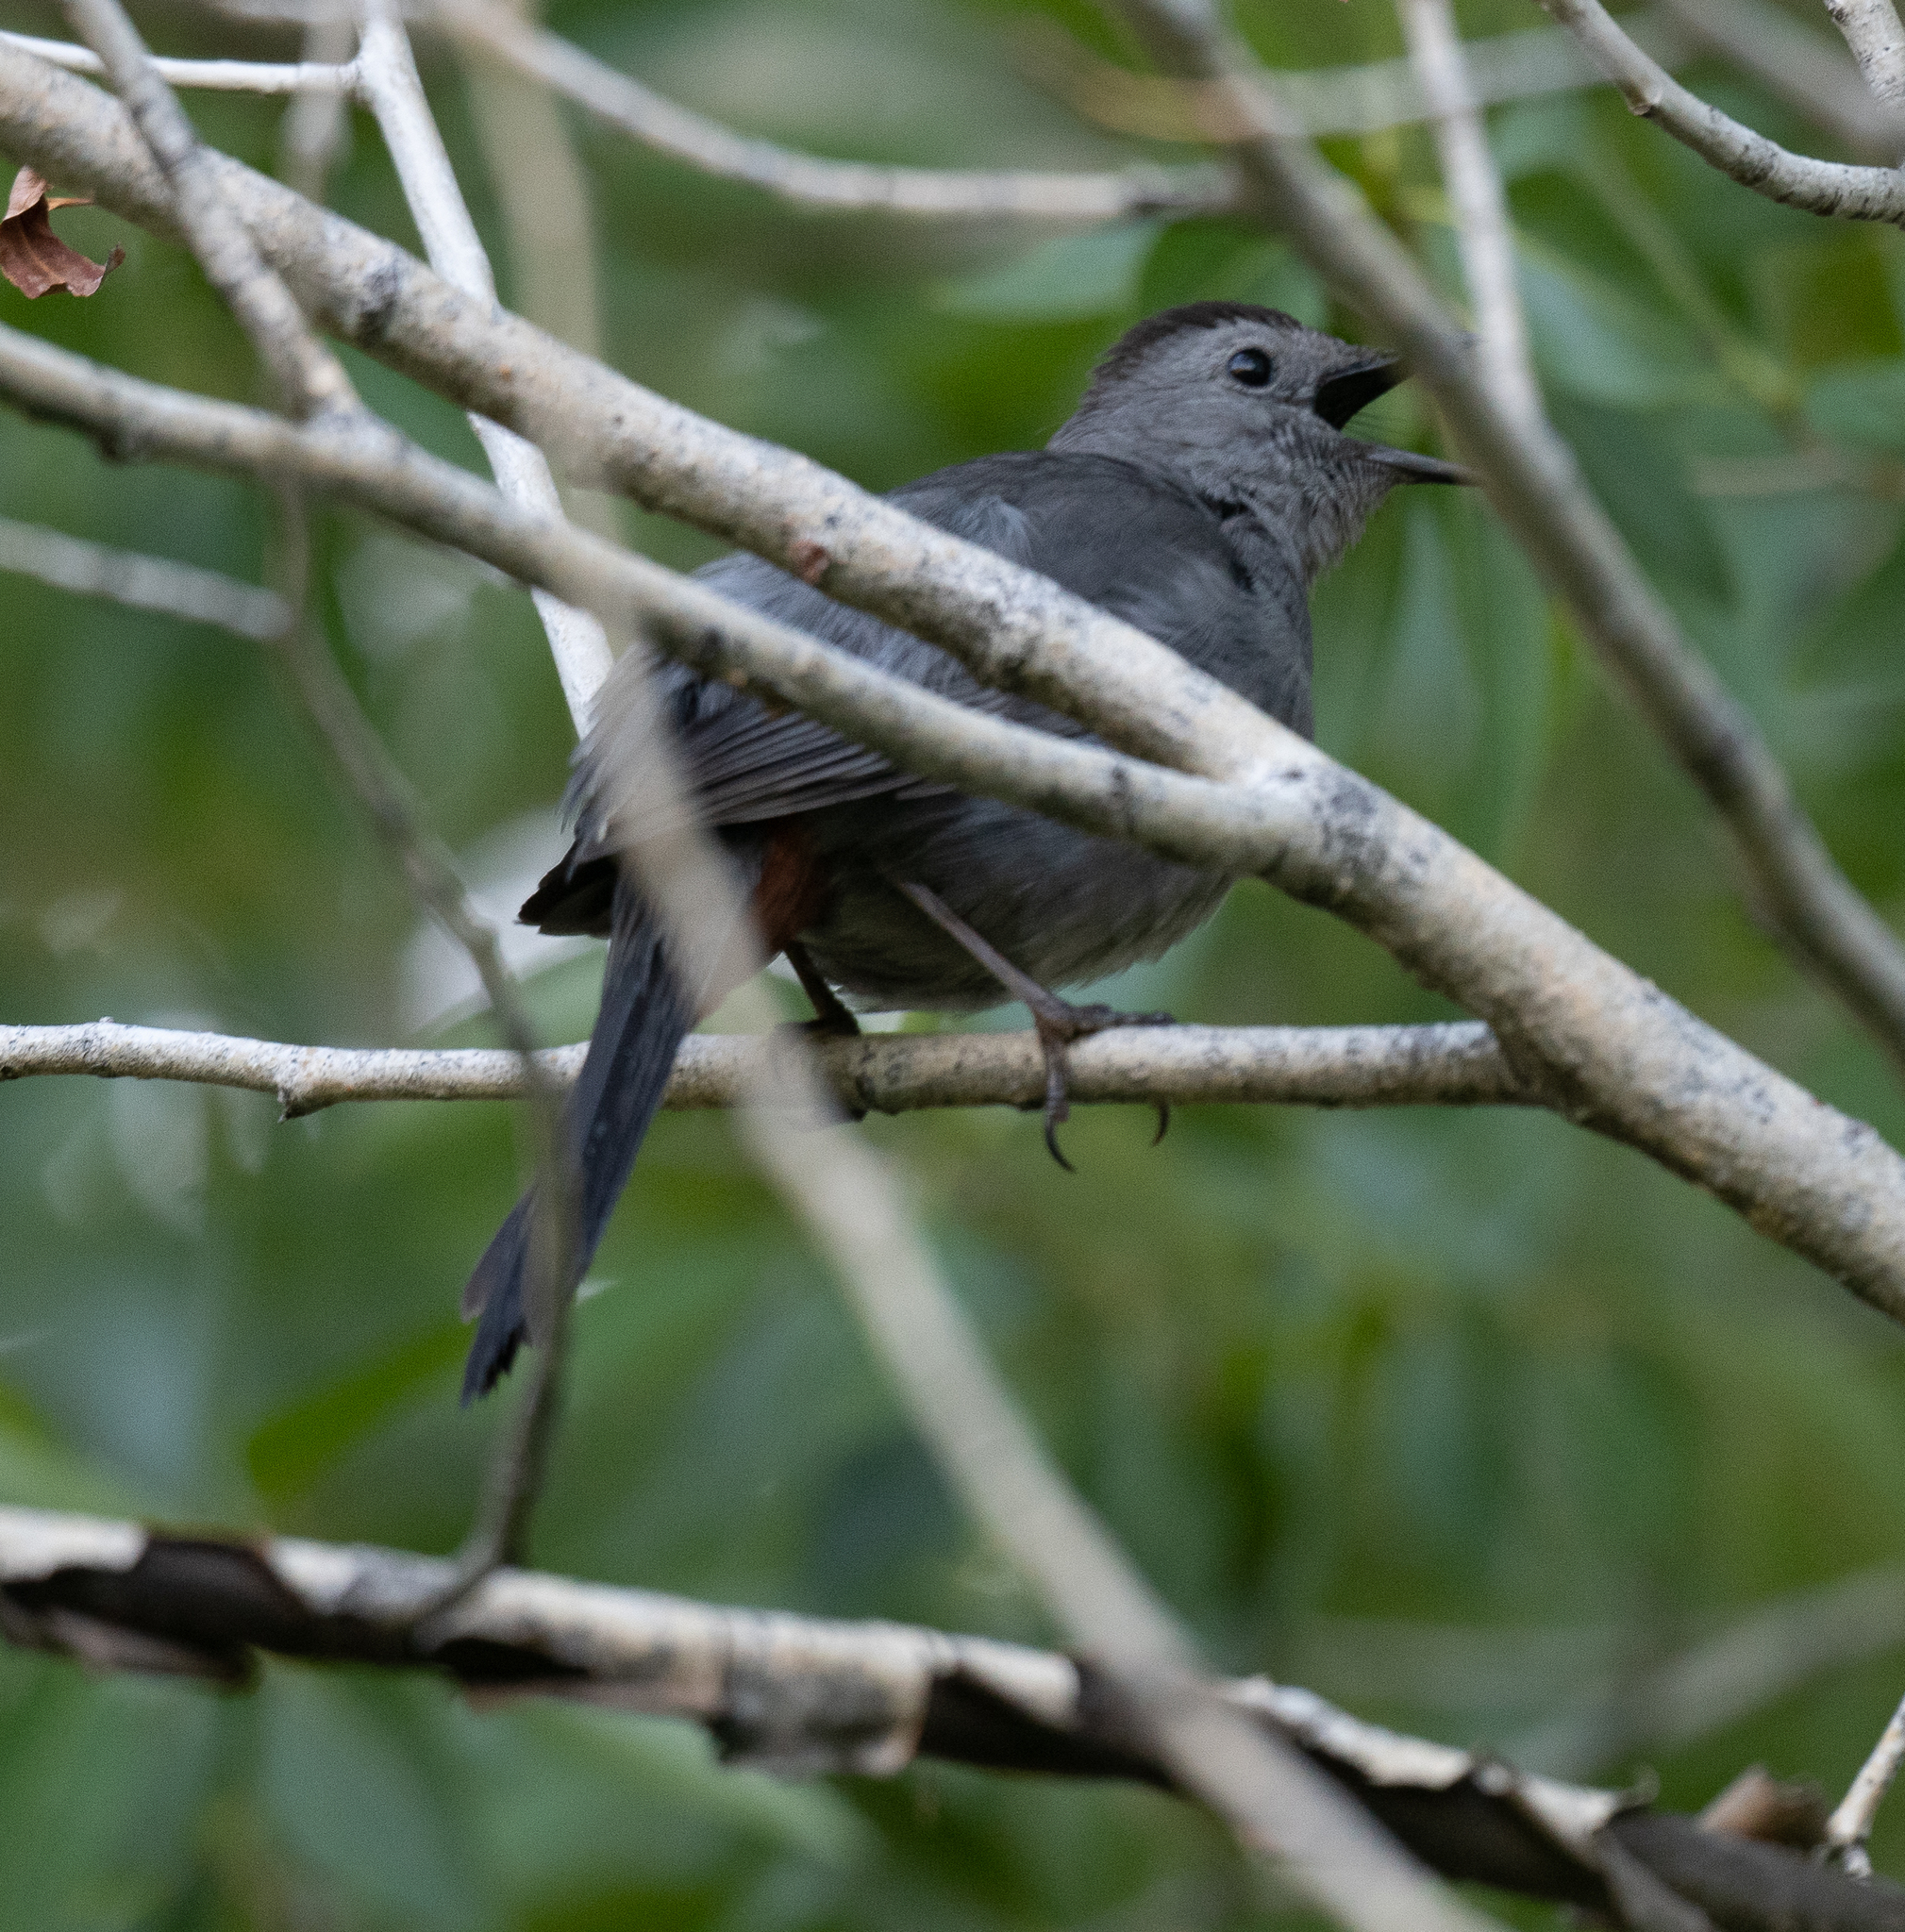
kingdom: Animalia
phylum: Chordata
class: Aves
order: Passeriformes
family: Mimidae
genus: Dumetella
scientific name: Dumetella carolinensis
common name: Gray catbird
